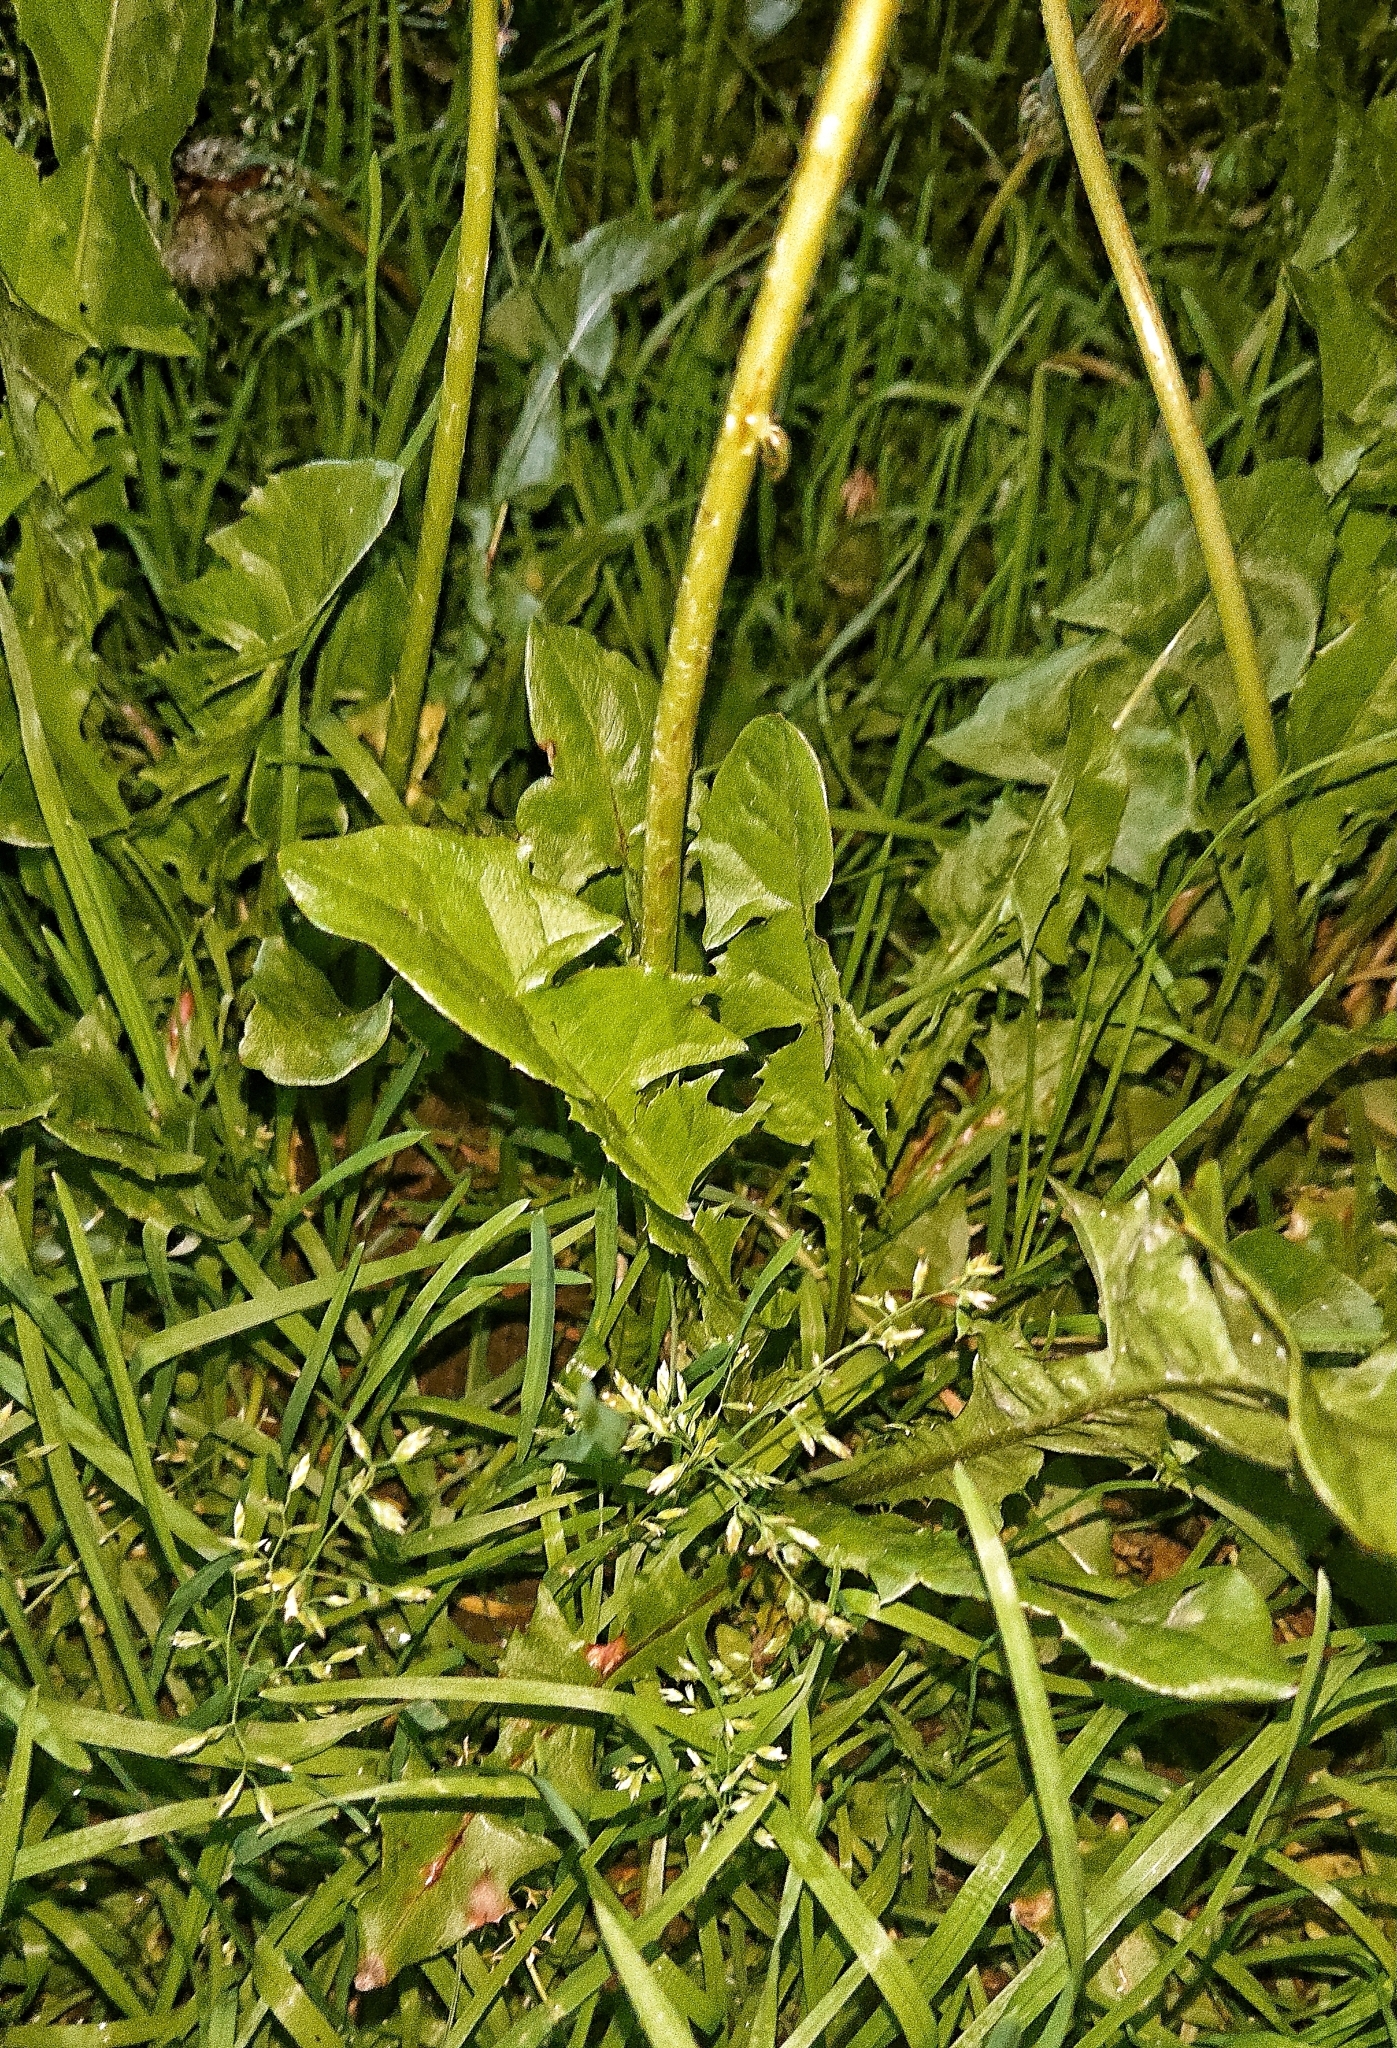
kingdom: Plantae
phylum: Tracheophyta
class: Magnoliopsida
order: Asterales
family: Asteraceae
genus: Taraxacum
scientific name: Taraxacum officinale
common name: Common dandelion
